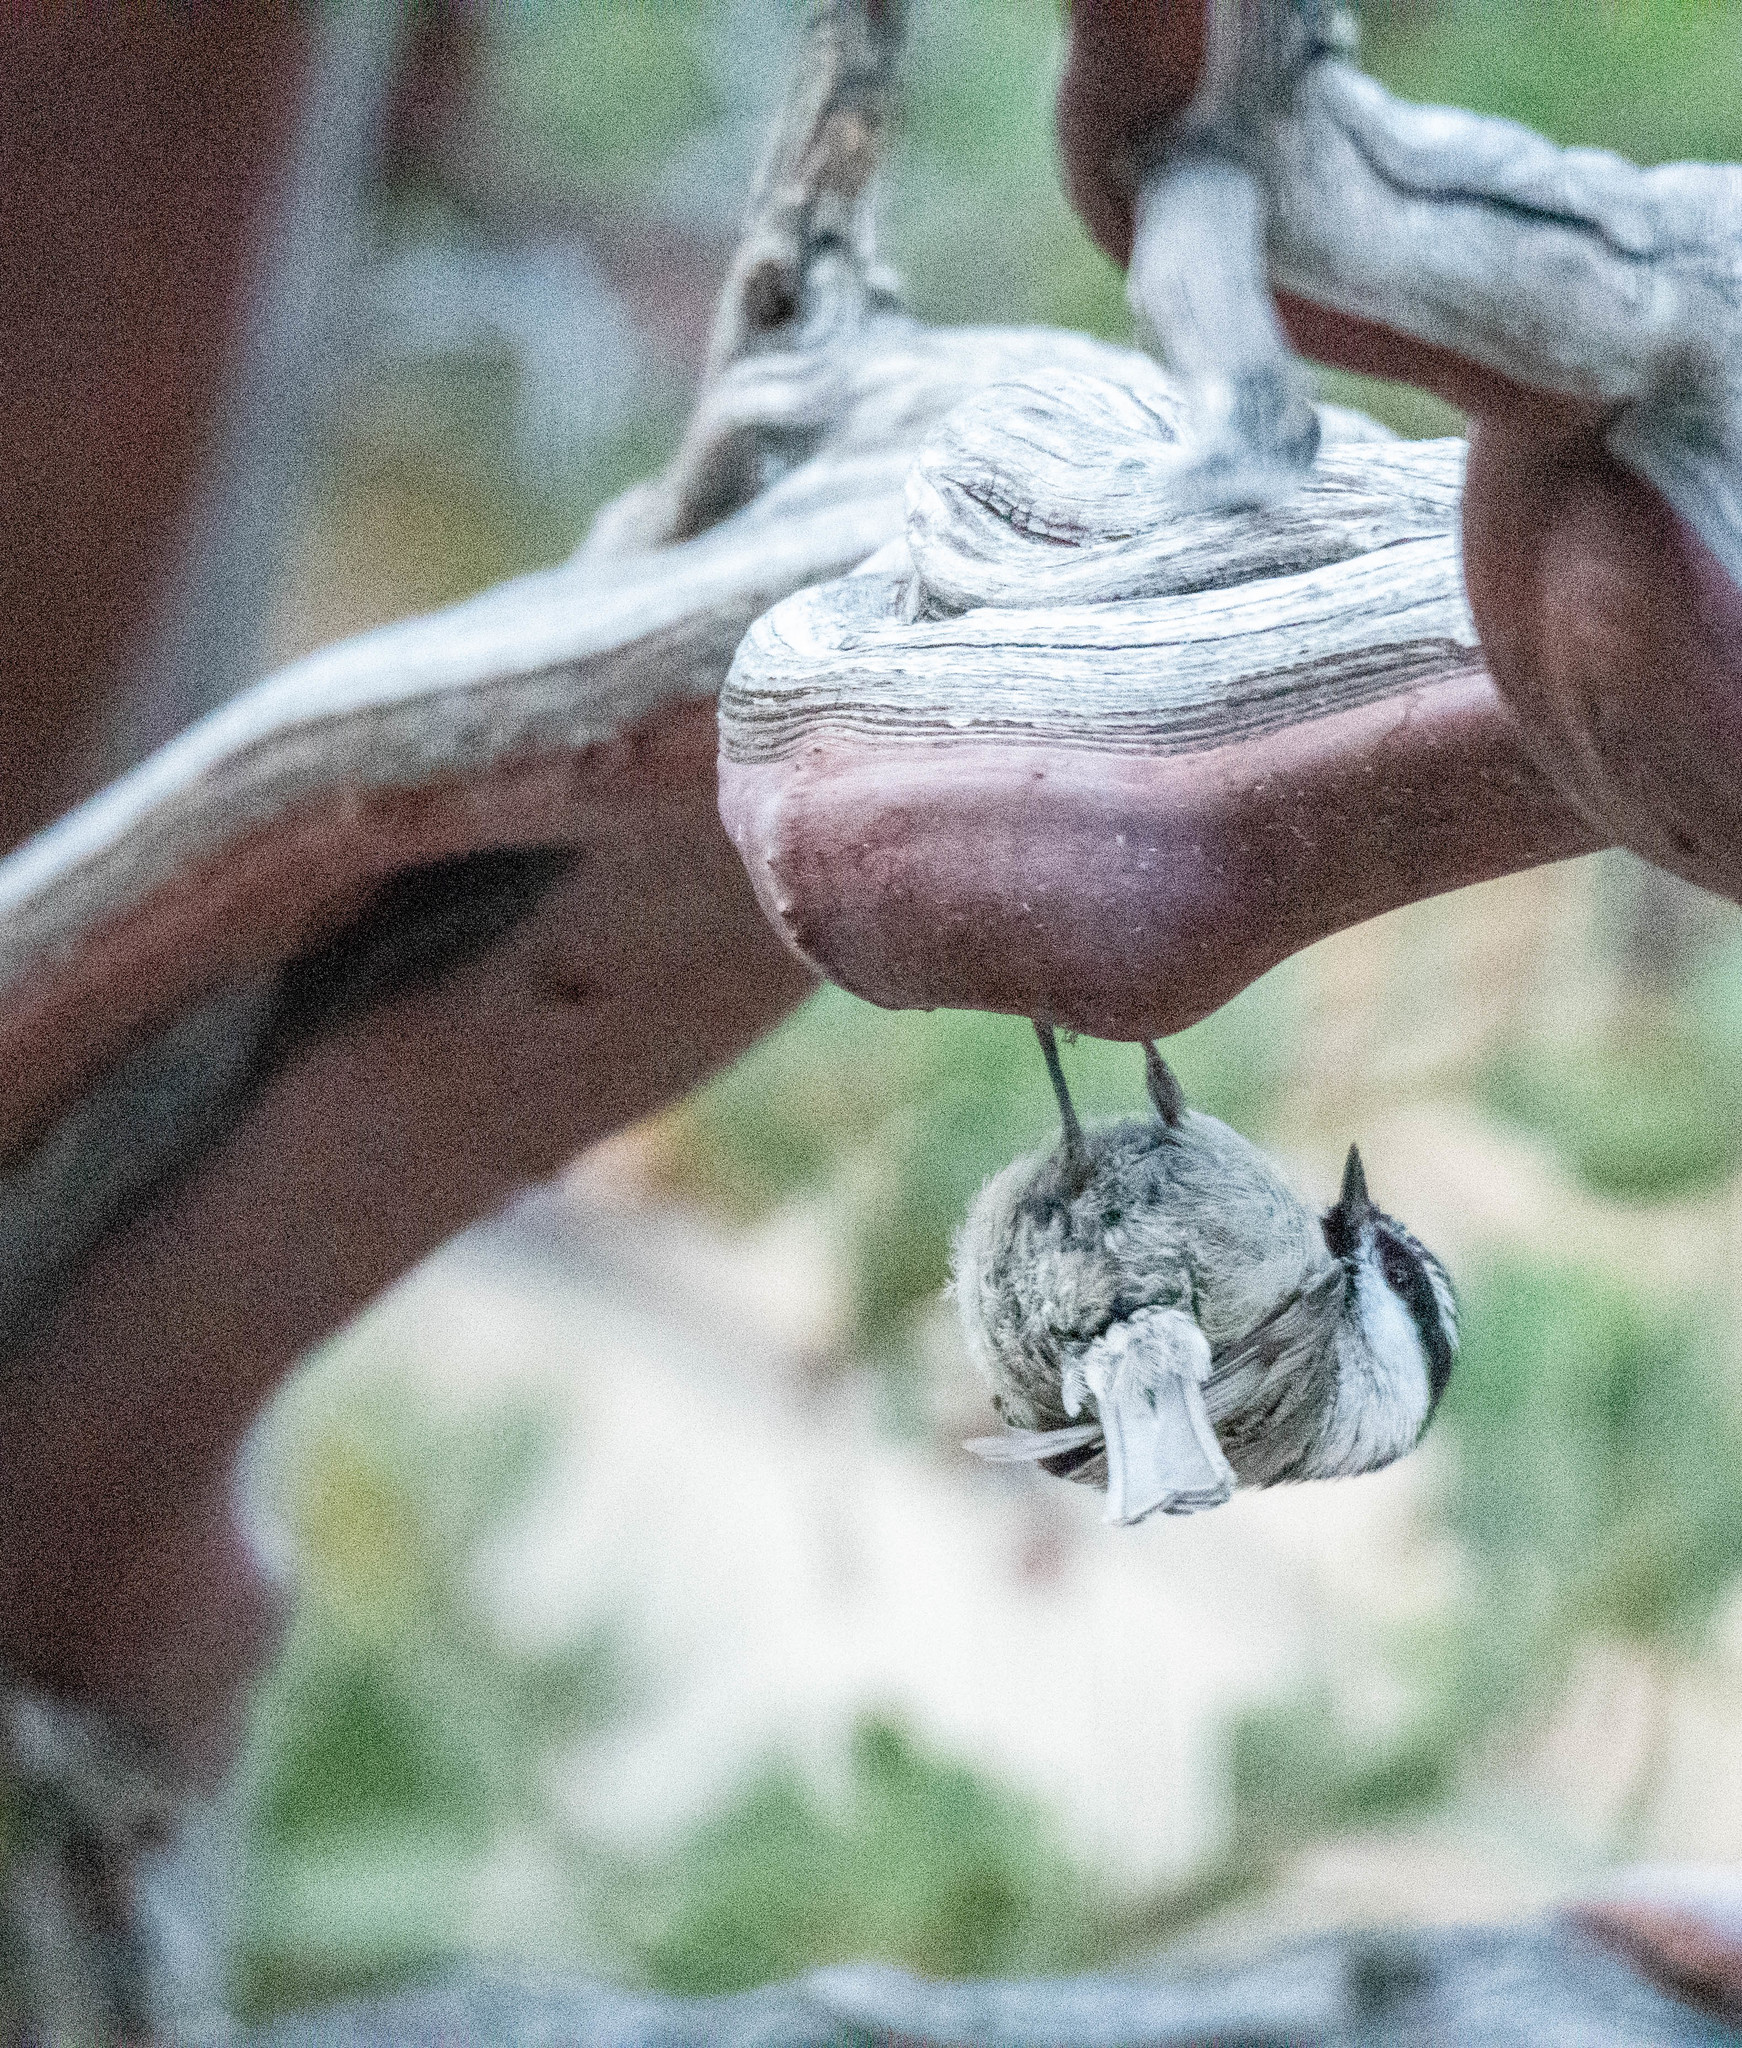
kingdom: Animalia
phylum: Chordata
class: Aves
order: Passeriformes
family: Paridae
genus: Poecile
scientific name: Poecile gambeli
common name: Mountain chickadee
